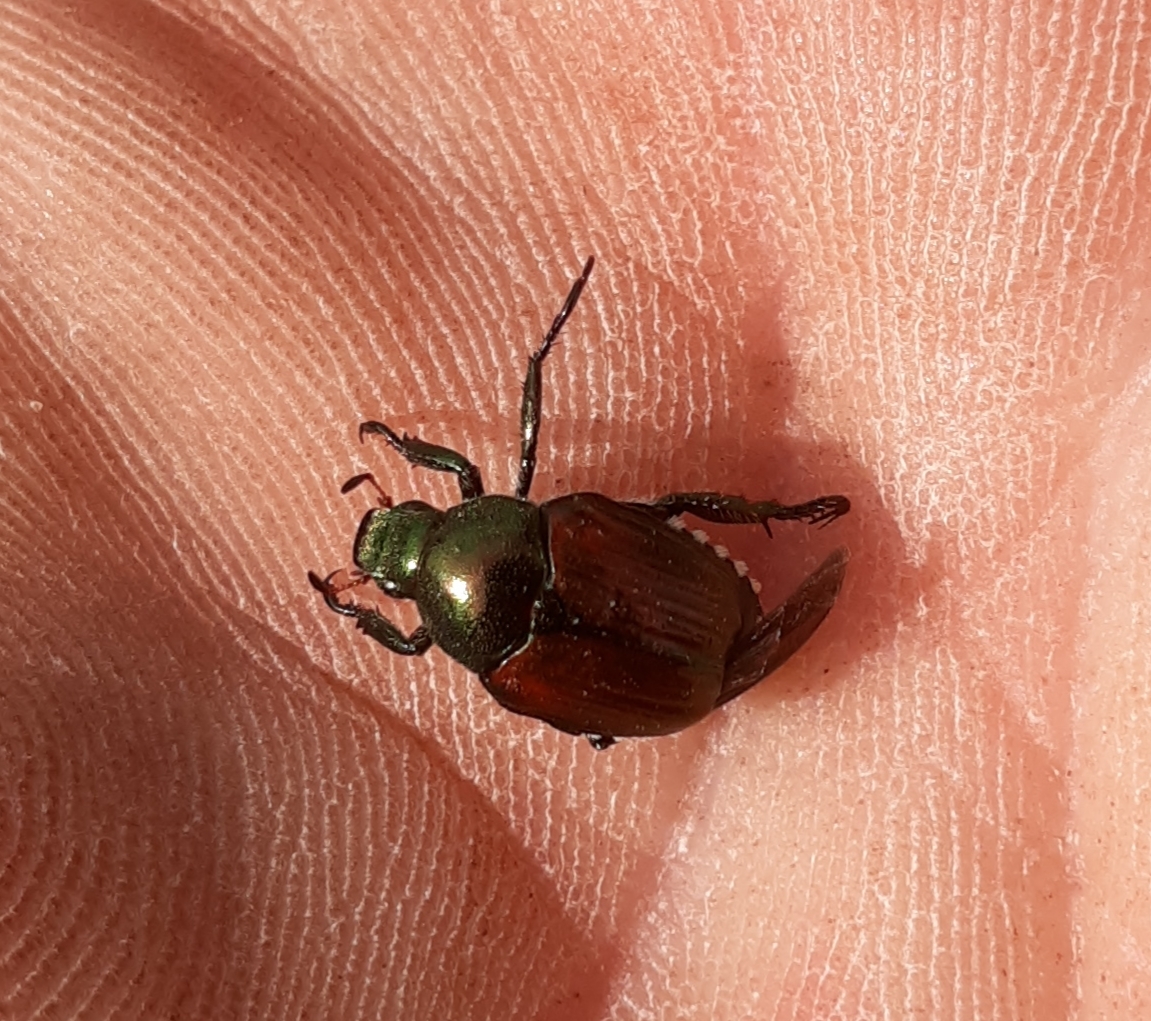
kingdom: Animalia
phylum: Arthropoda
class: Insecta
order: Coleoptera
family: Scarabaeidae
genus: Popillia
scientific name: Popillia japonica
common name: Japanese beetle
